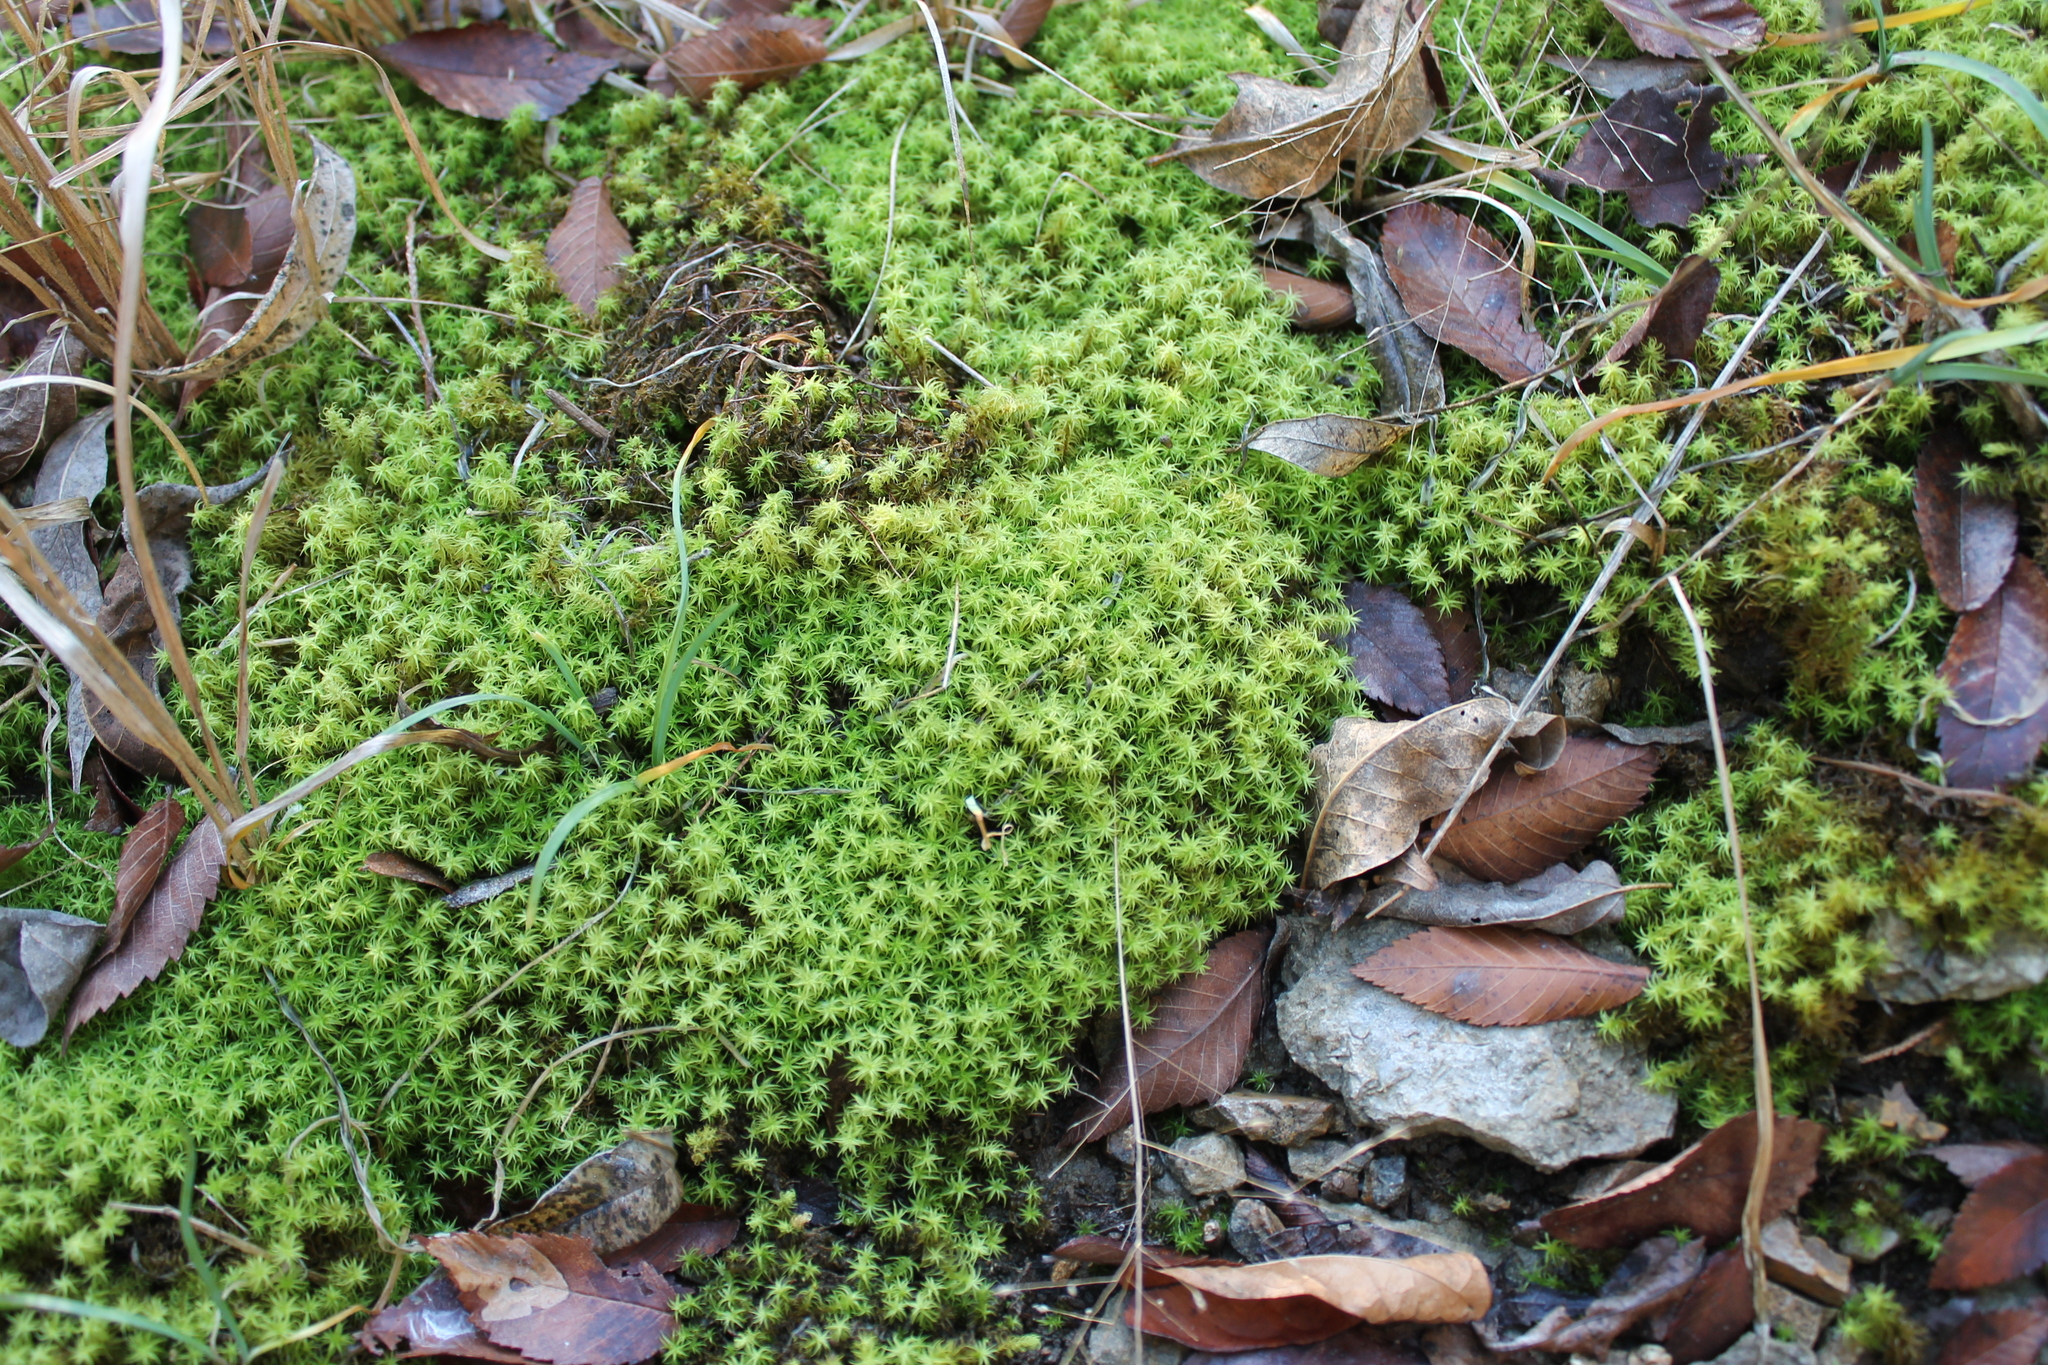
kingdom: Plantae
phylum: Bryophyta
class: Bryopsida
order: Bartramiales
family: Bartramiaceae
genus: Bartramia
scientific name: Bartramia ithyphylla
